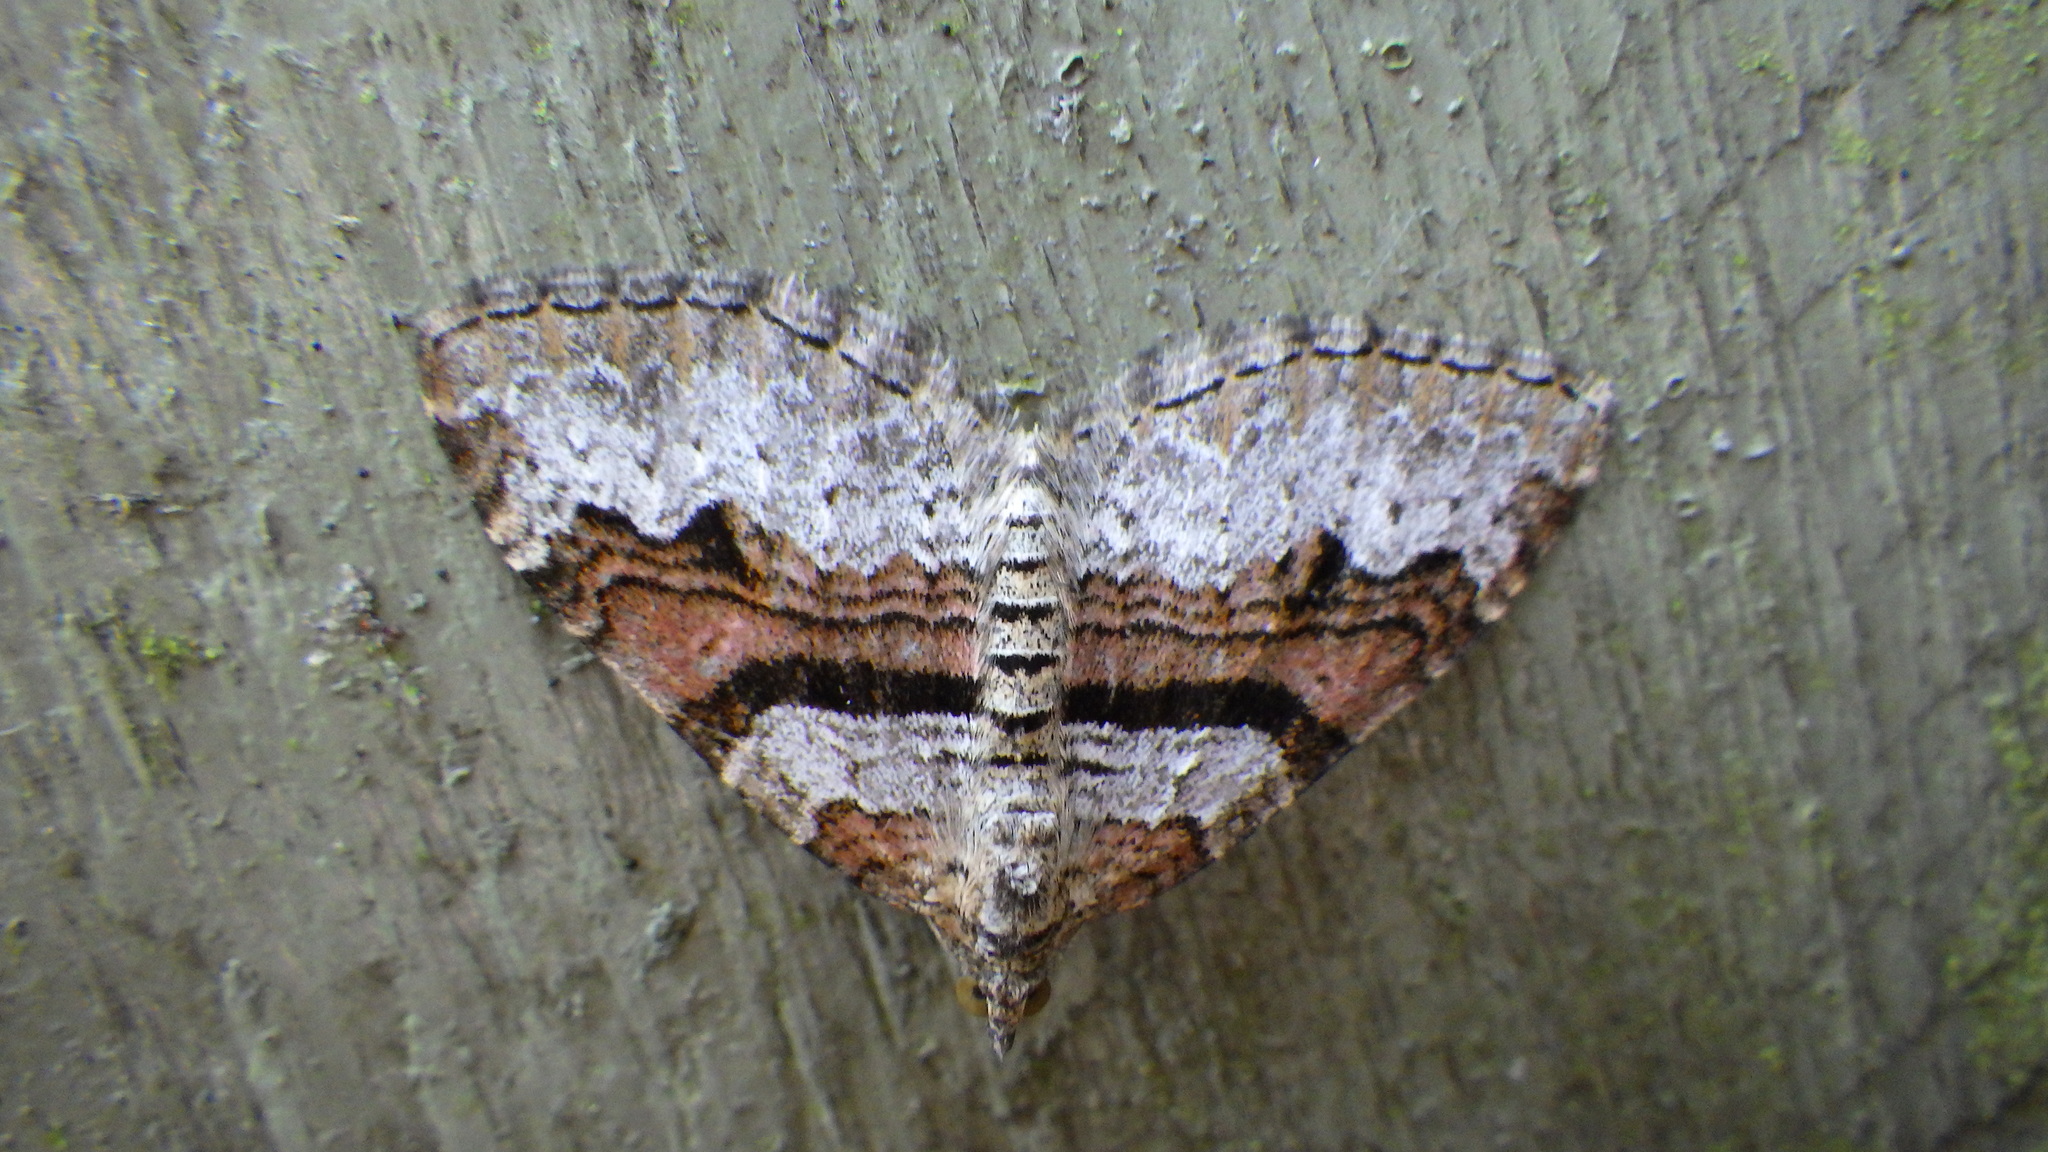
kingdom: Animalia
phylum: Arthropoda
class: Insecta
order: Lepidoptera
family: Geometridae
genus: Xanthorhoe
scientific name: Xanthorhoe designata
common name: Flame carpet
